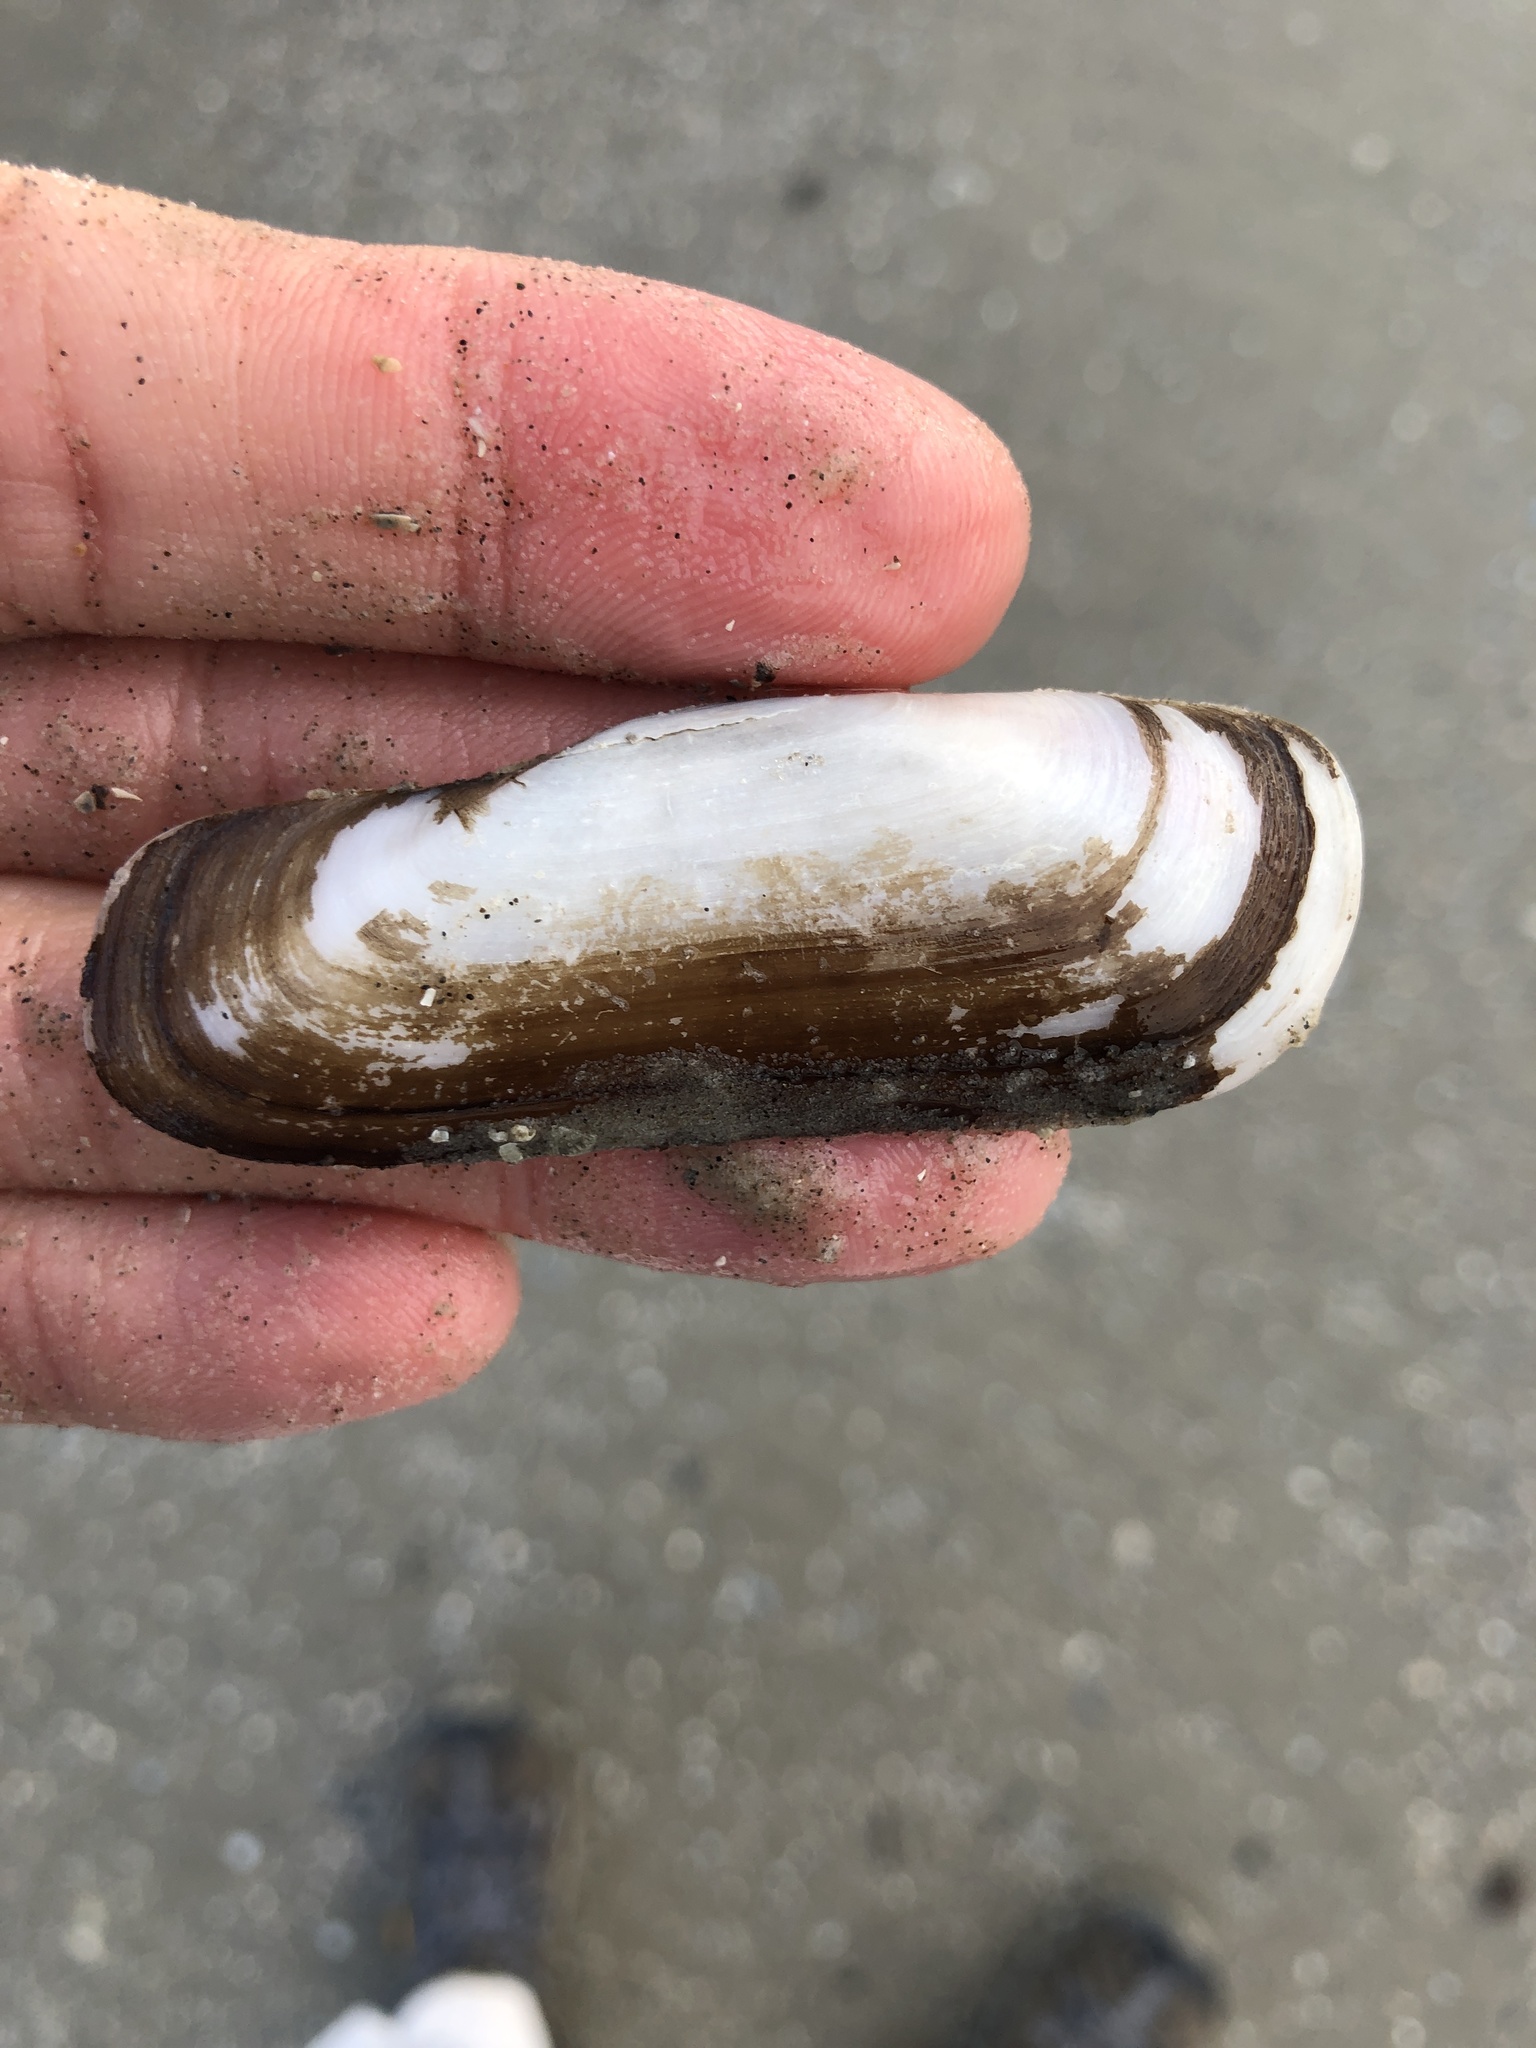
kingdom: Animalia
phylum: Mollusca
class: Bivalvia
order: Cardiida
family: Solecurtidae
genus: Tagelus
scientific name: Tagelus plebeius
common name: Stout tagelus
